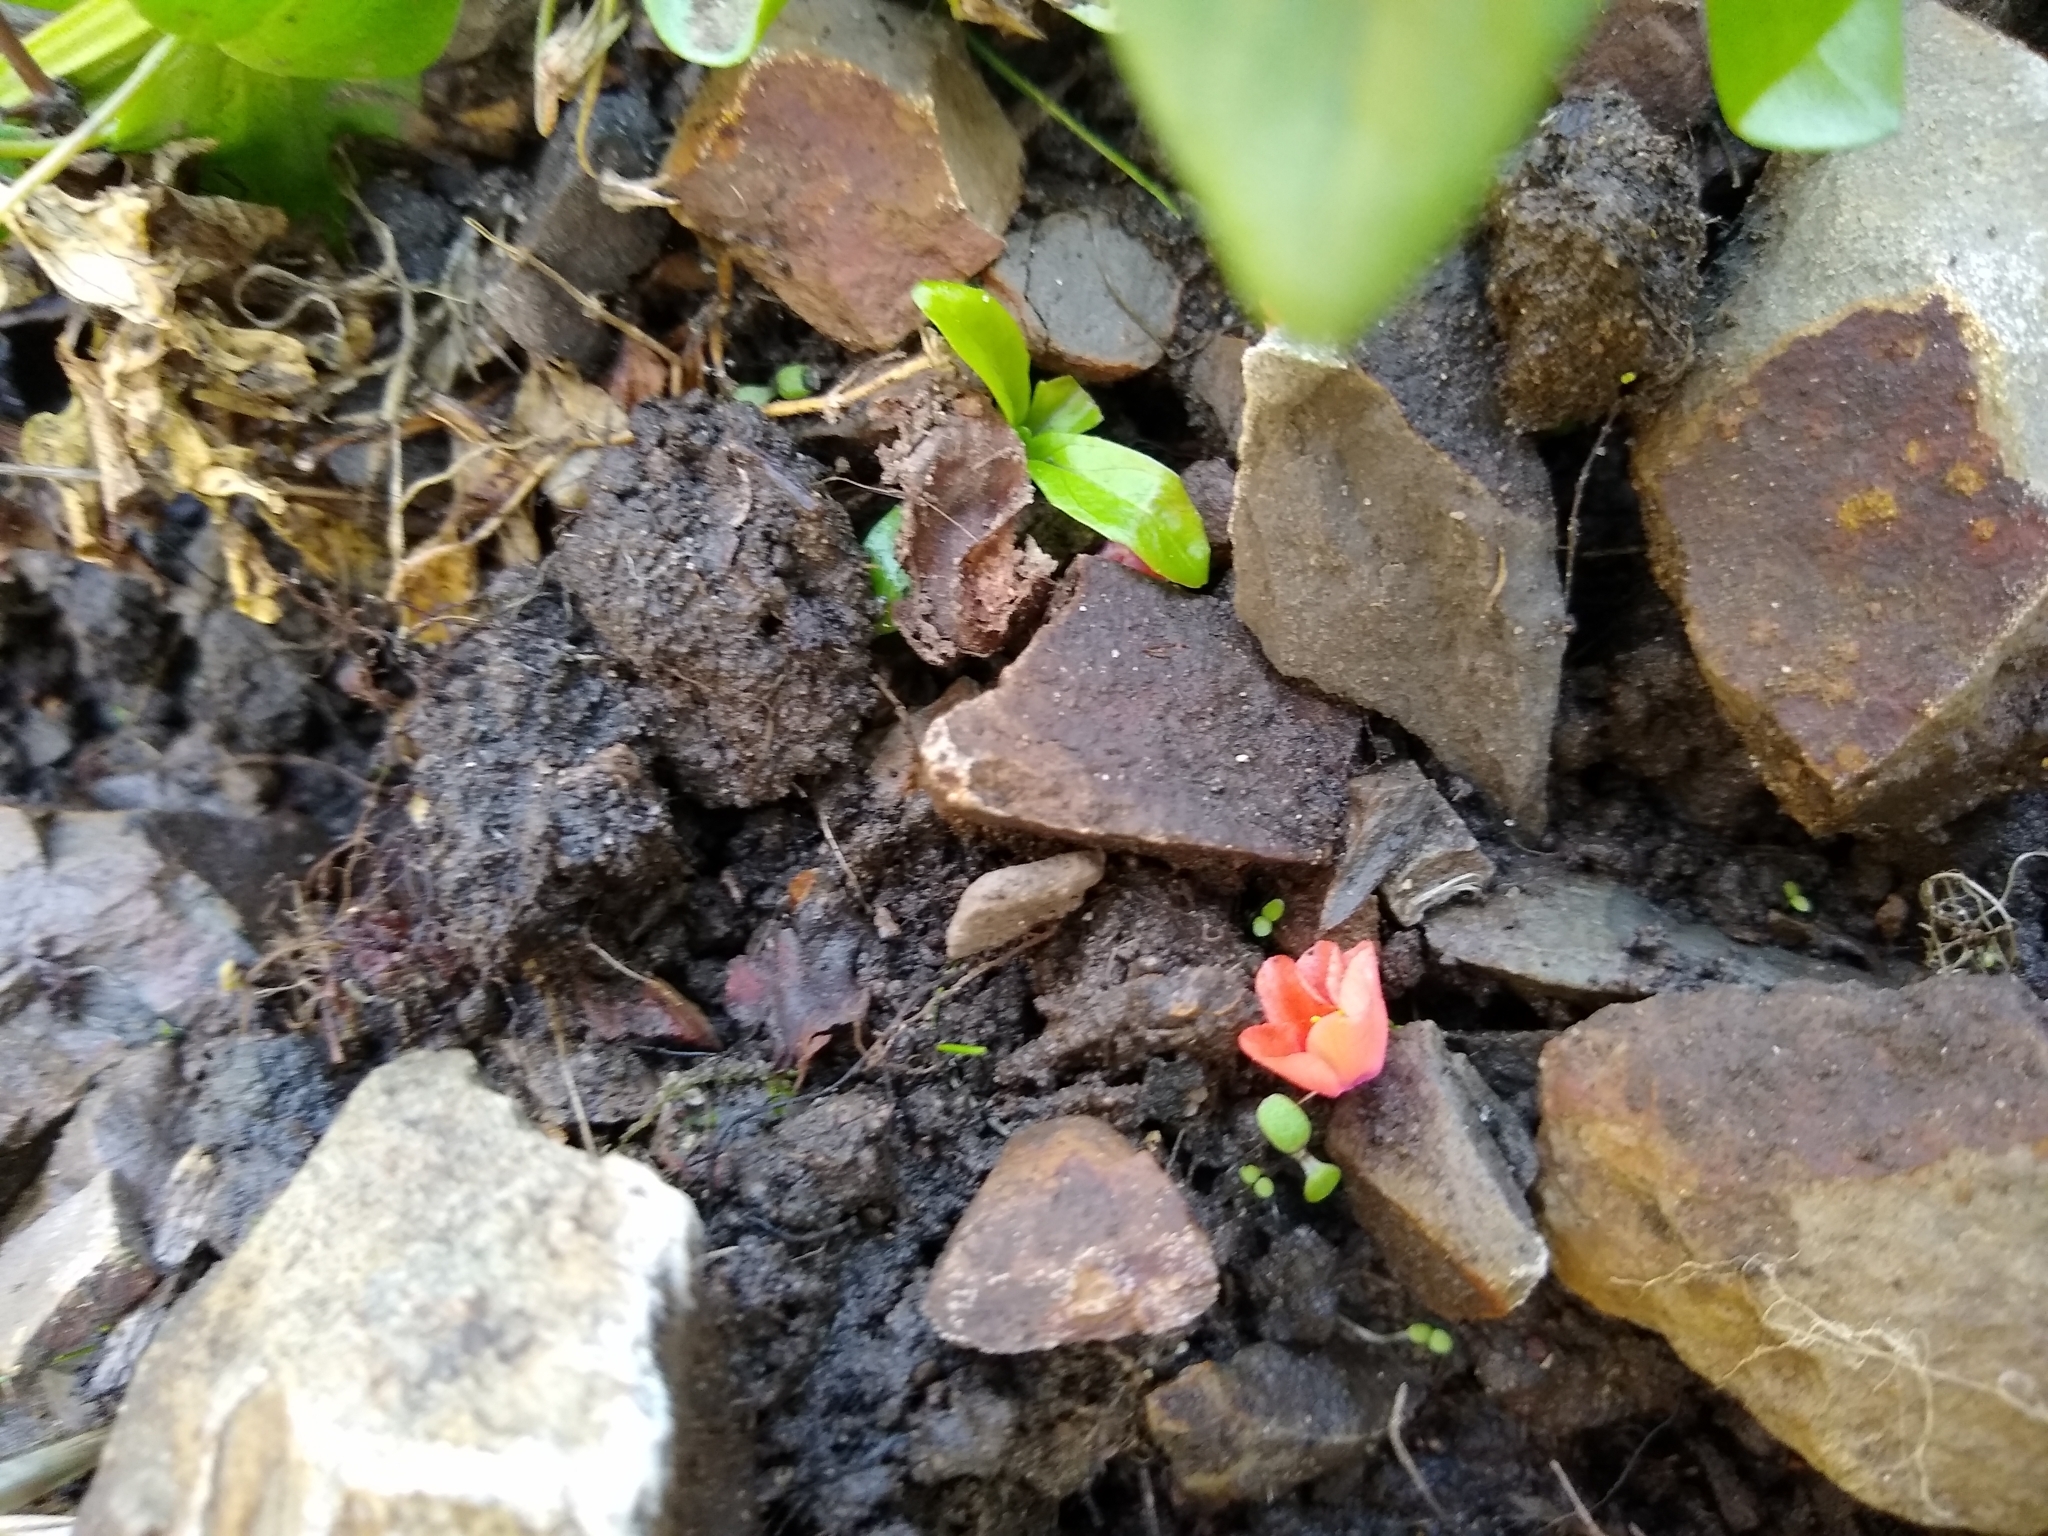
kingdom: Plantae
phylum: Tracheophyta
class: Magnoliopsida
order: Ericales
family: Primulaceae
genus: Lysimachia
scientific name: Lysimachia arvensis
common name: Scarlet pimpernel
